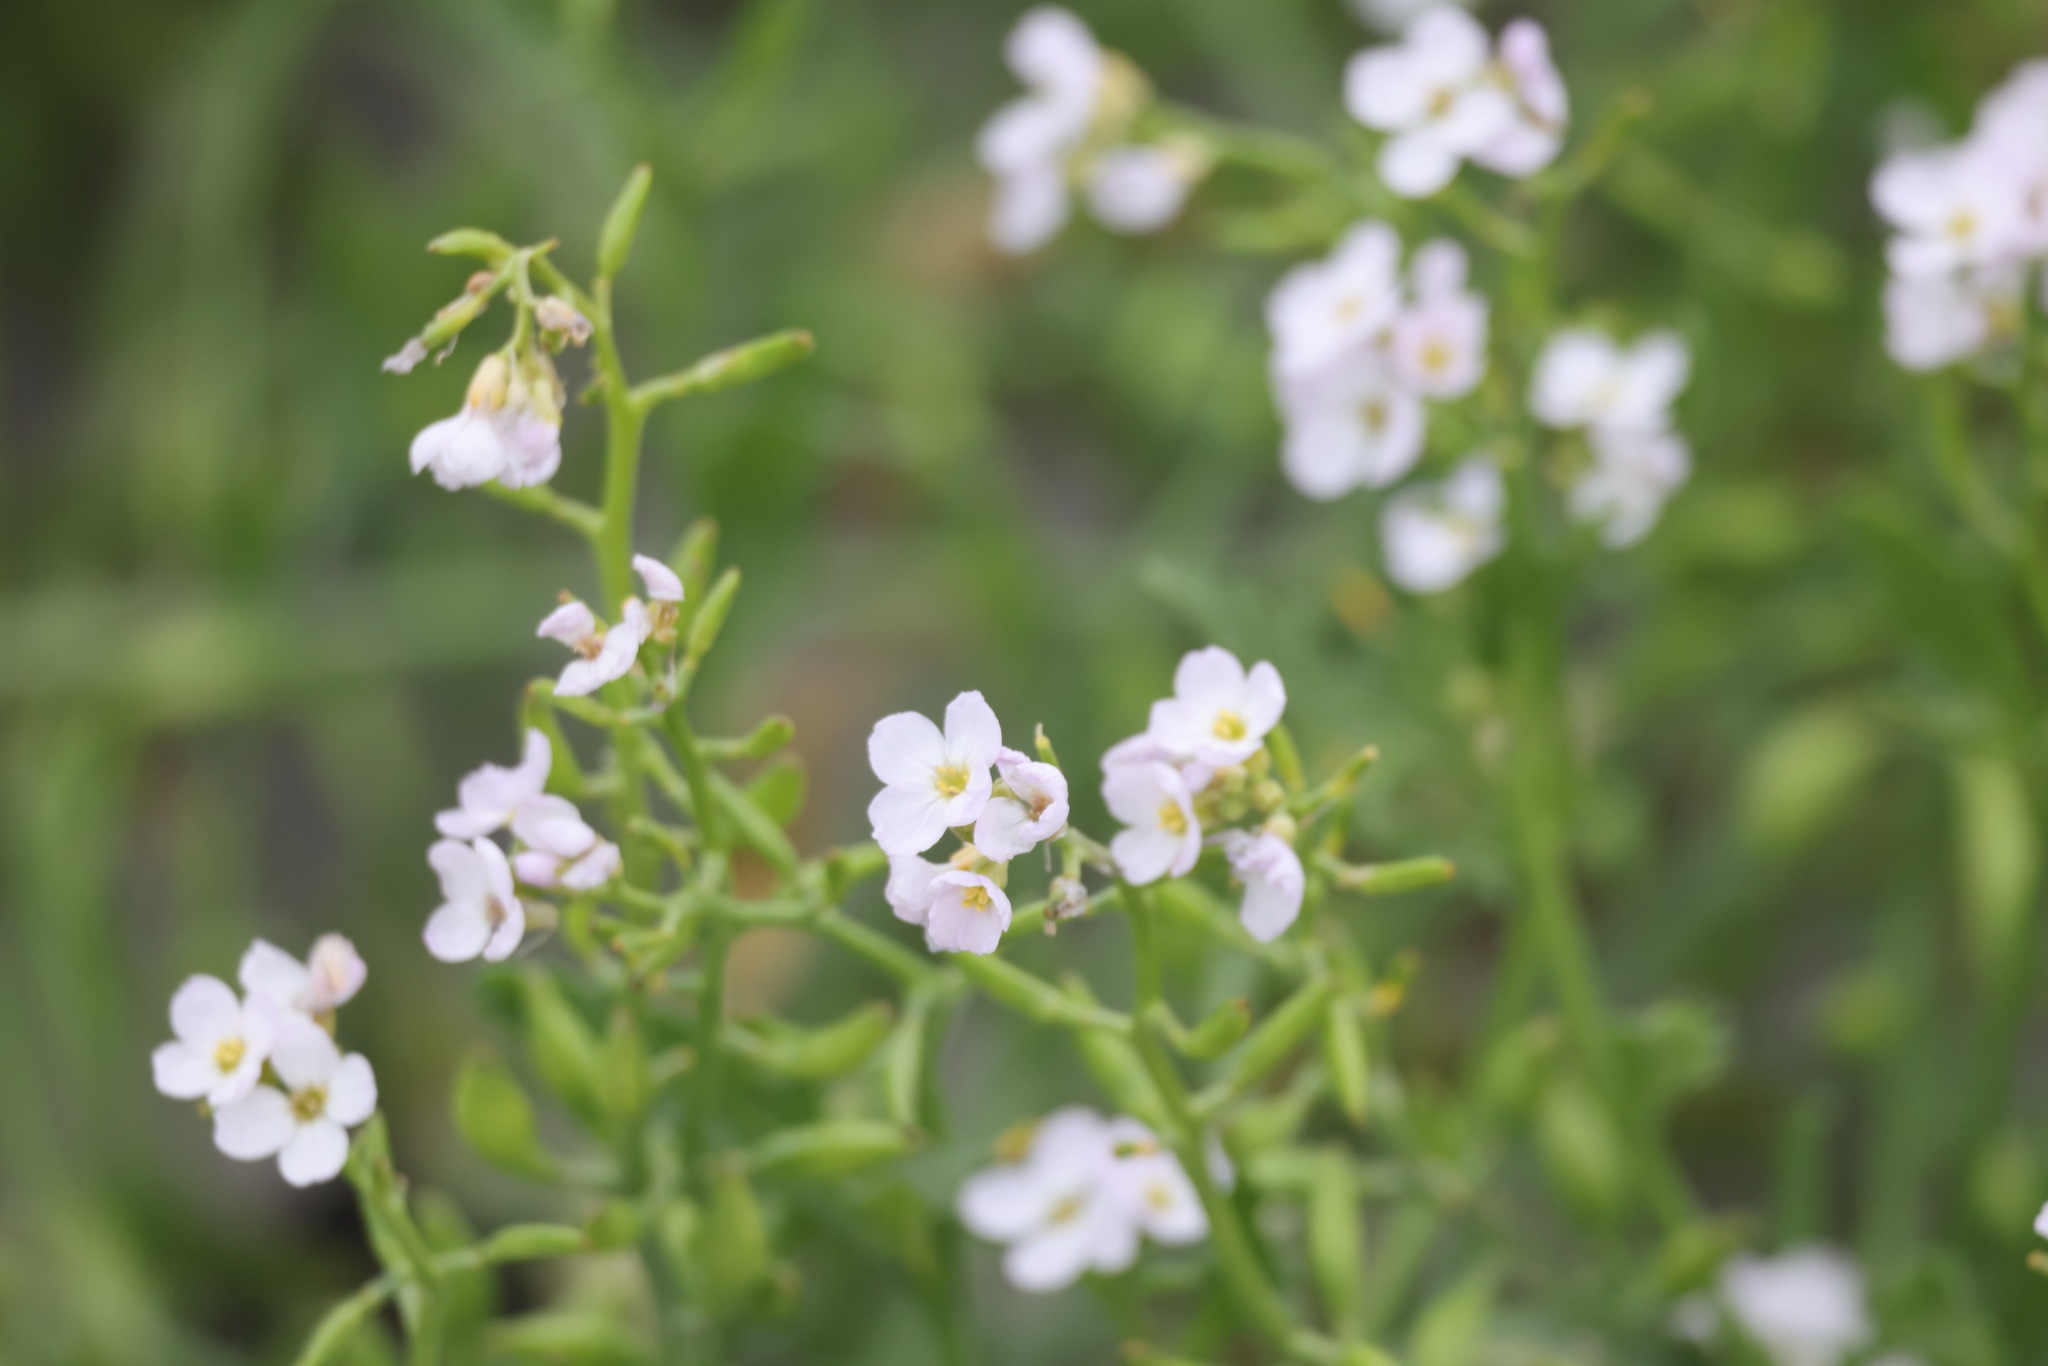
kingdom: Plantae
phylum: Tracheophyta
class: Magnoliopsida
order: Brassicales
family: Brassicaceae
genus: Cakile
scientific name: Cakile maritima
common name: Sea rocket
